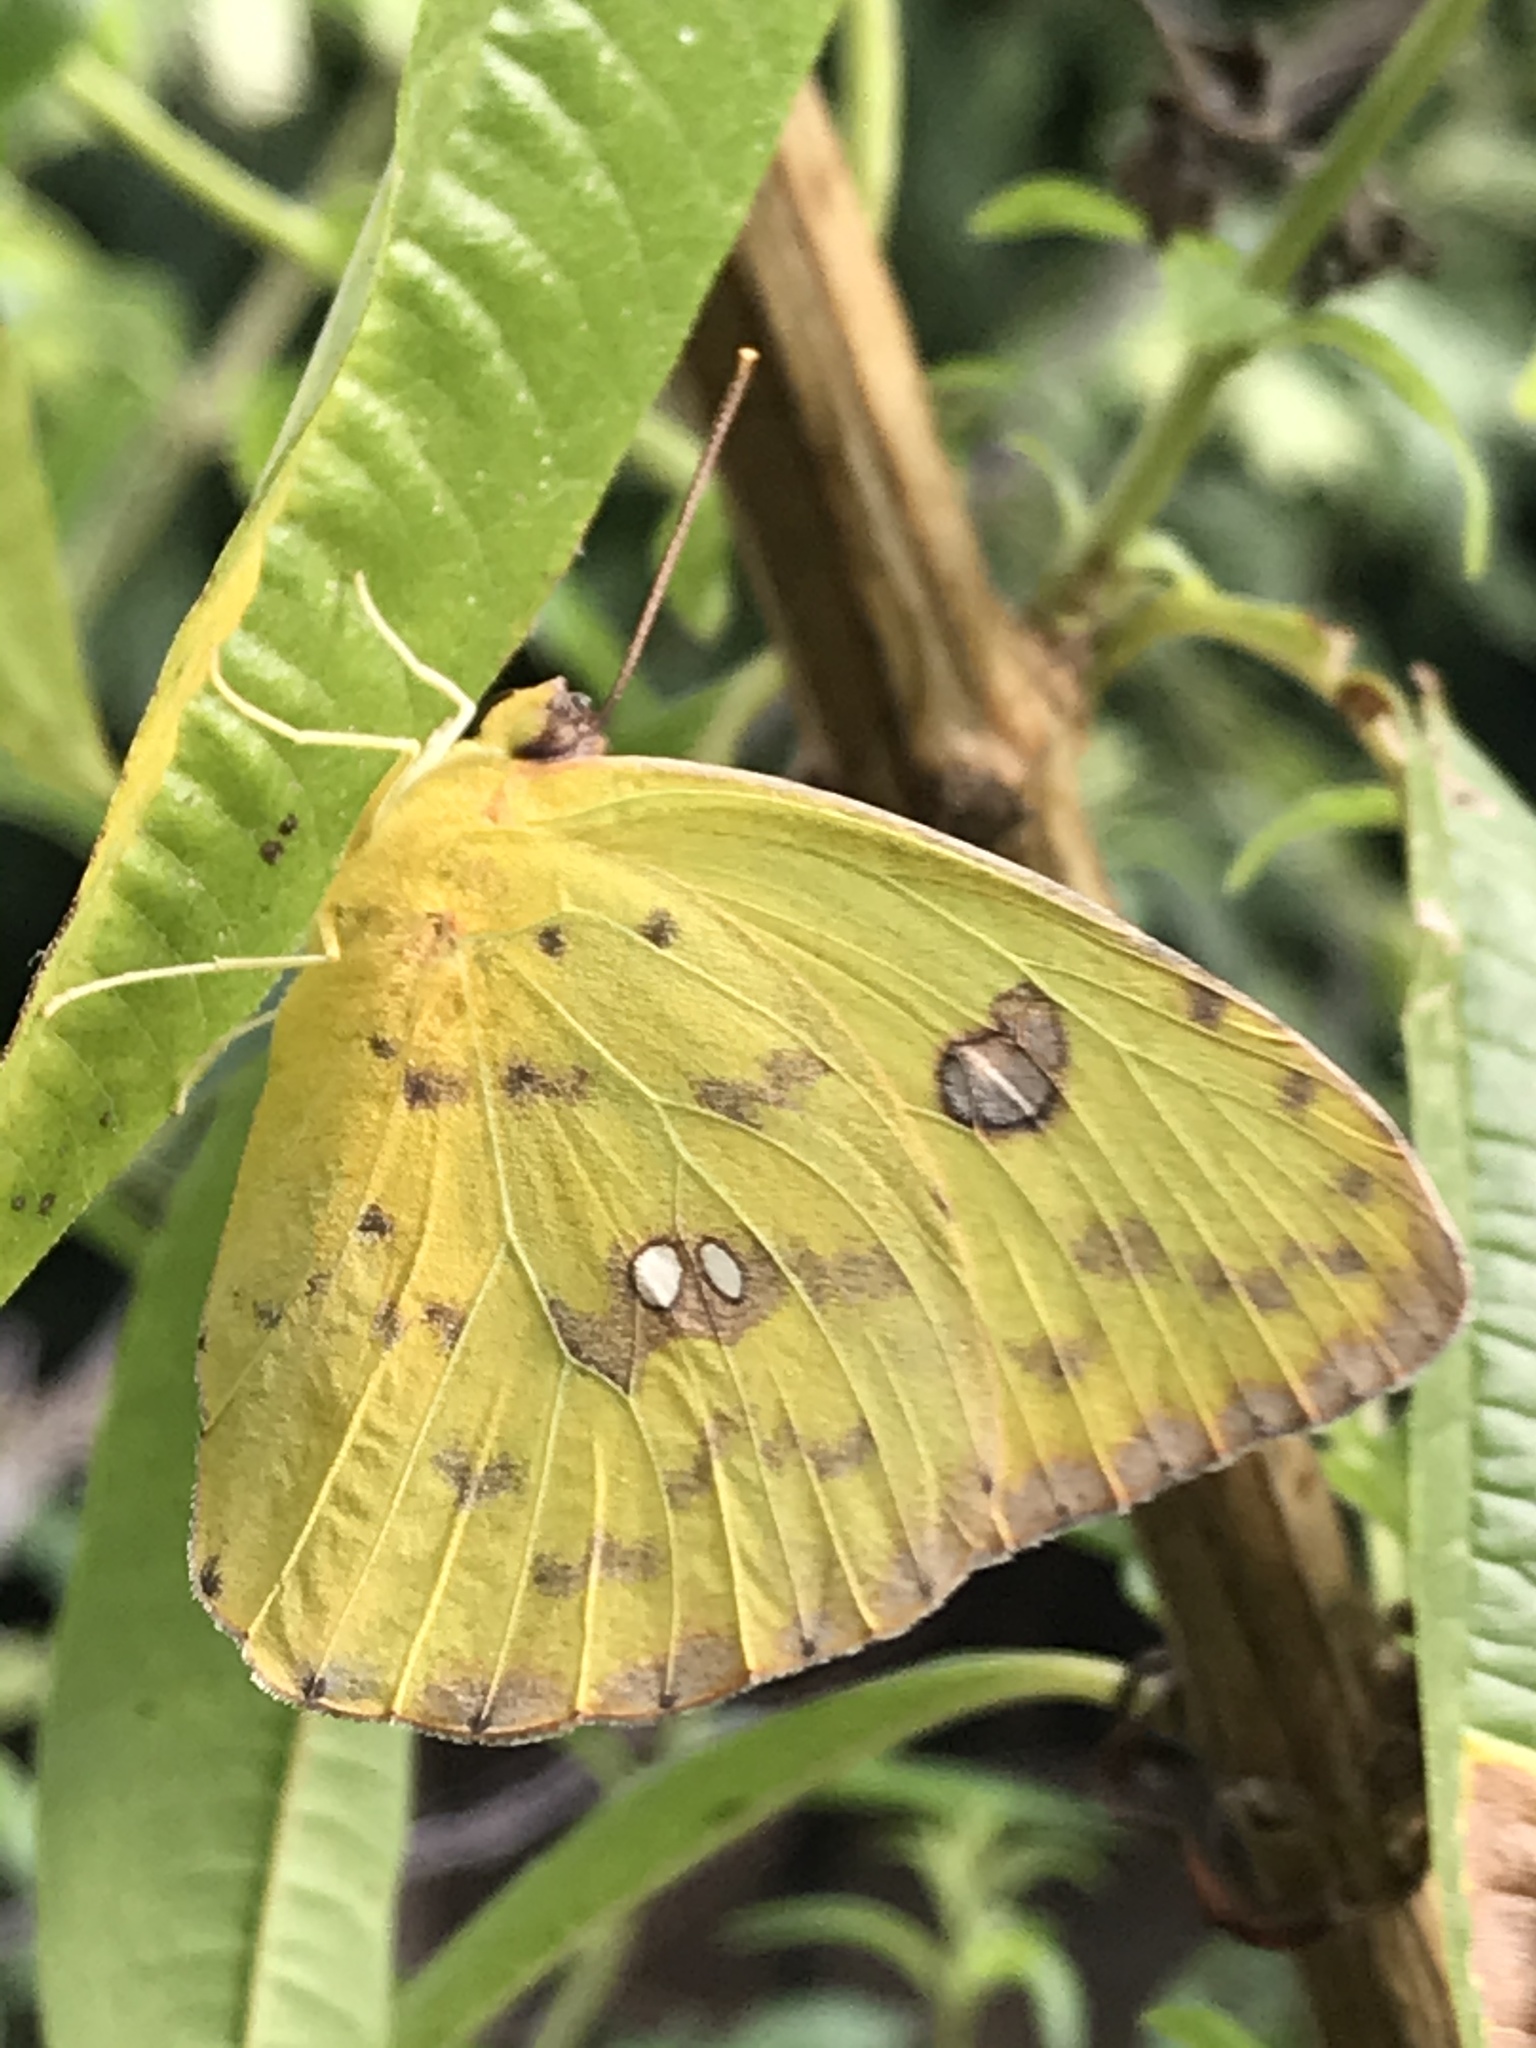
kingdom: Animalia
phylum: Arthropoda
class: Insecta
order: Lepidoptera
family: Pieridae
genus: Phoebis
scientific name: Phoebis sennae
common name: Cloudless sulphur
